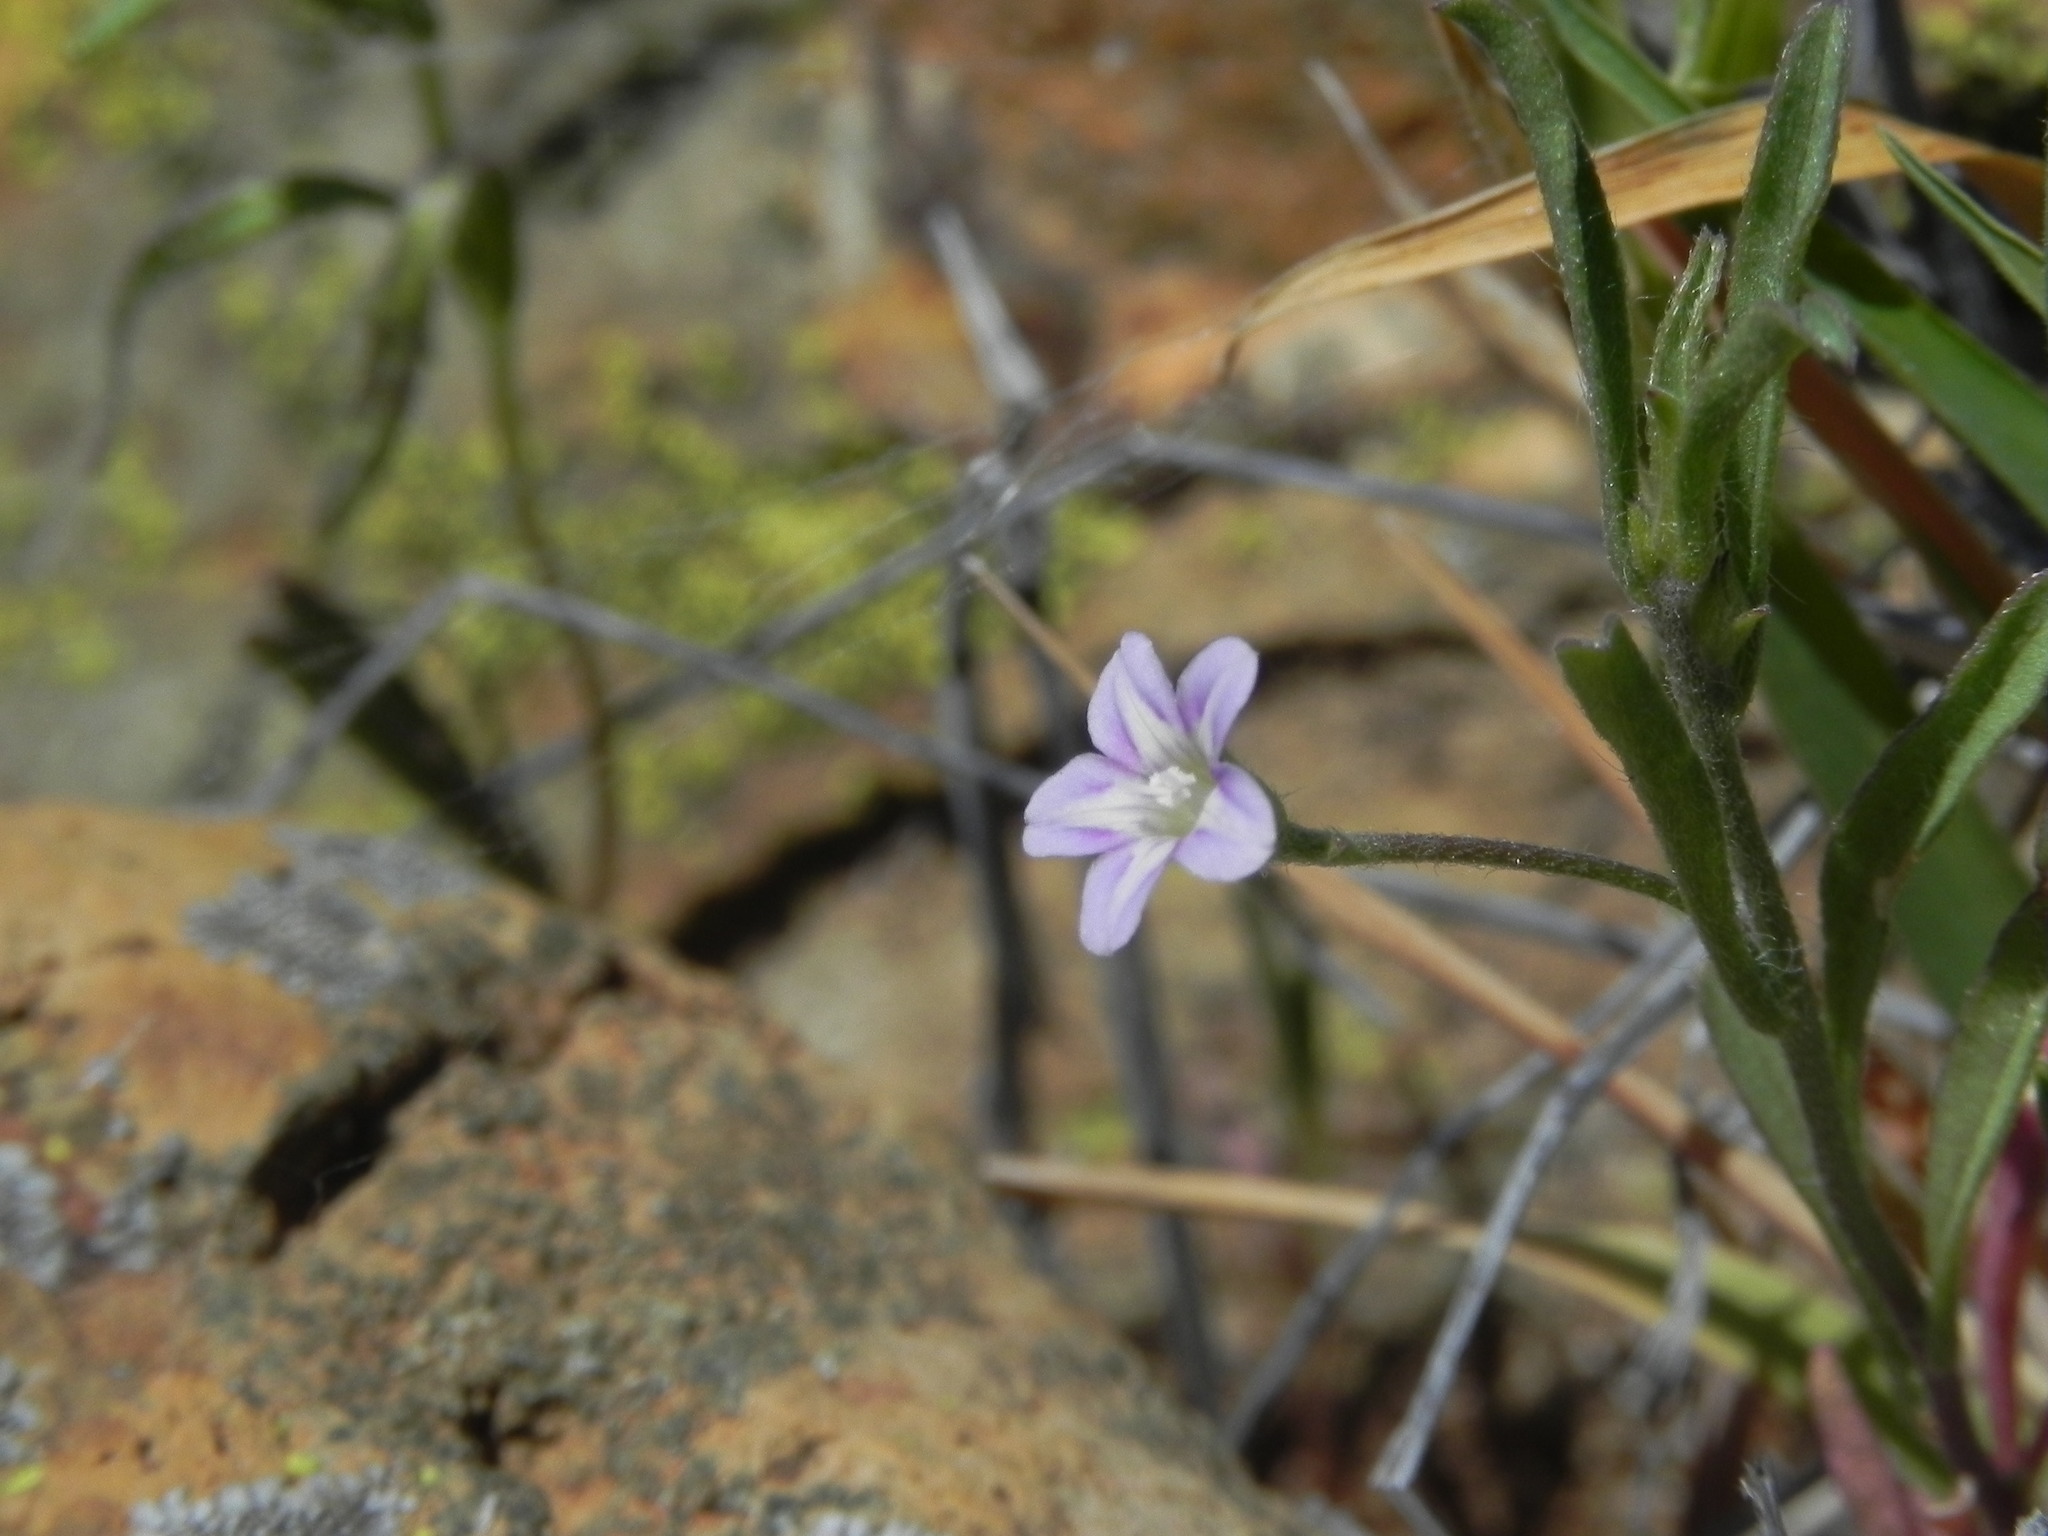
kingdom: Plantae
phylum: Tracheophyta
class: Magnoliopsida
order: Solanales
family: Convolvulaceae
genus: Convolvulus
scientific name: Convolvulus simulans
